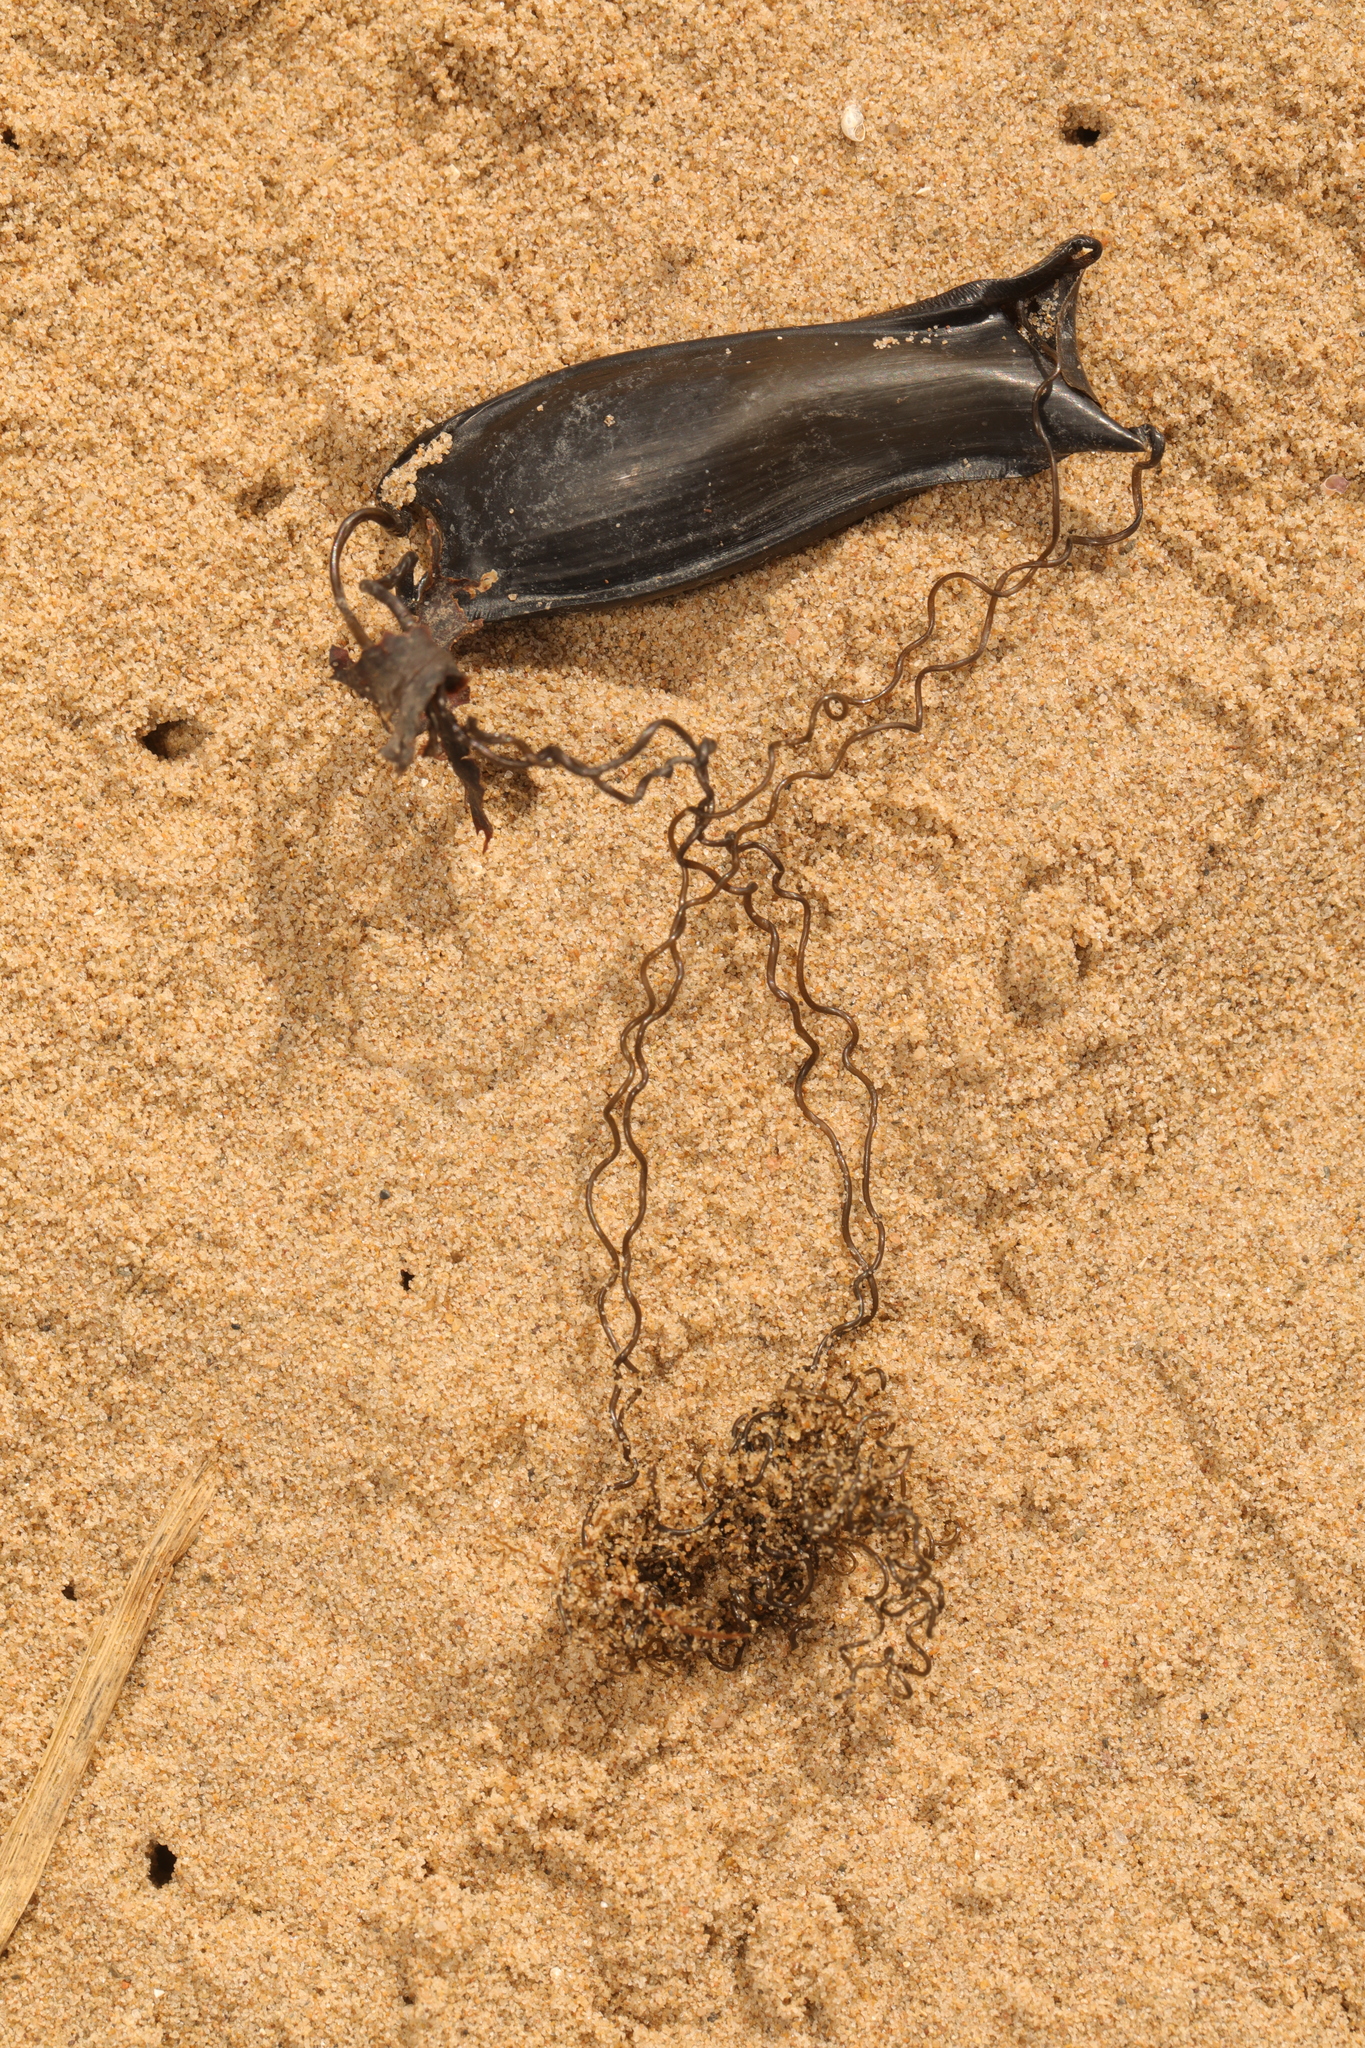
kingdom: Animalia
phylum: Chordata
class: Elasmobranchii
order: Carcharhiniformes
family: Scyliorhinidae
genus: Scyliorhinus
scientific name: Scyliorhinus canicula
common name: Lesser spotted dogfish
